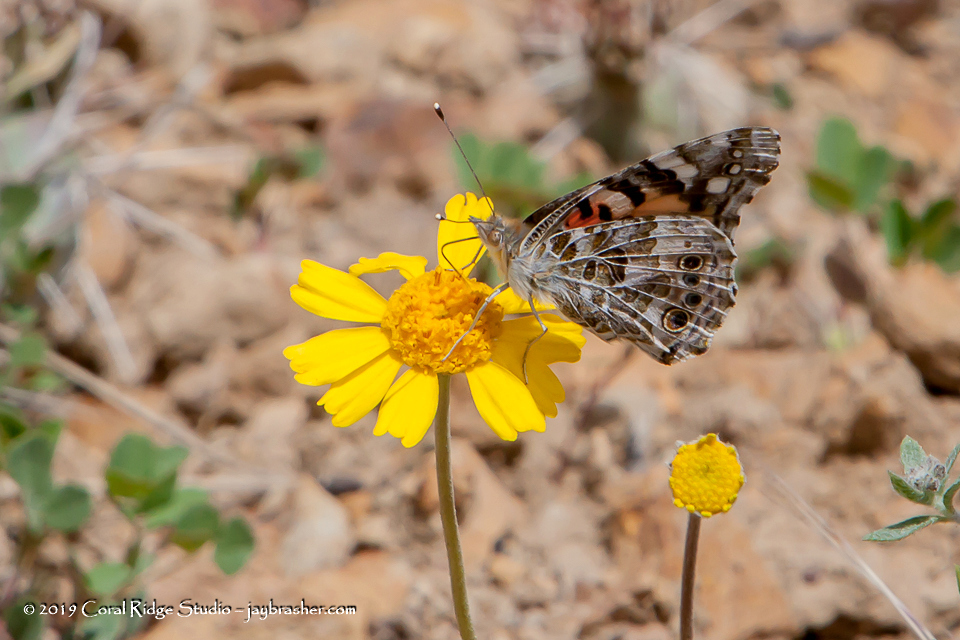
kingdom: Animalia
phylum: Arthropoda
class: Insecta
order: Lepidoptera
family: Nymphalidae
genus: Vanessa
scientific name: Vanessa cardui
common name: Painted lady
